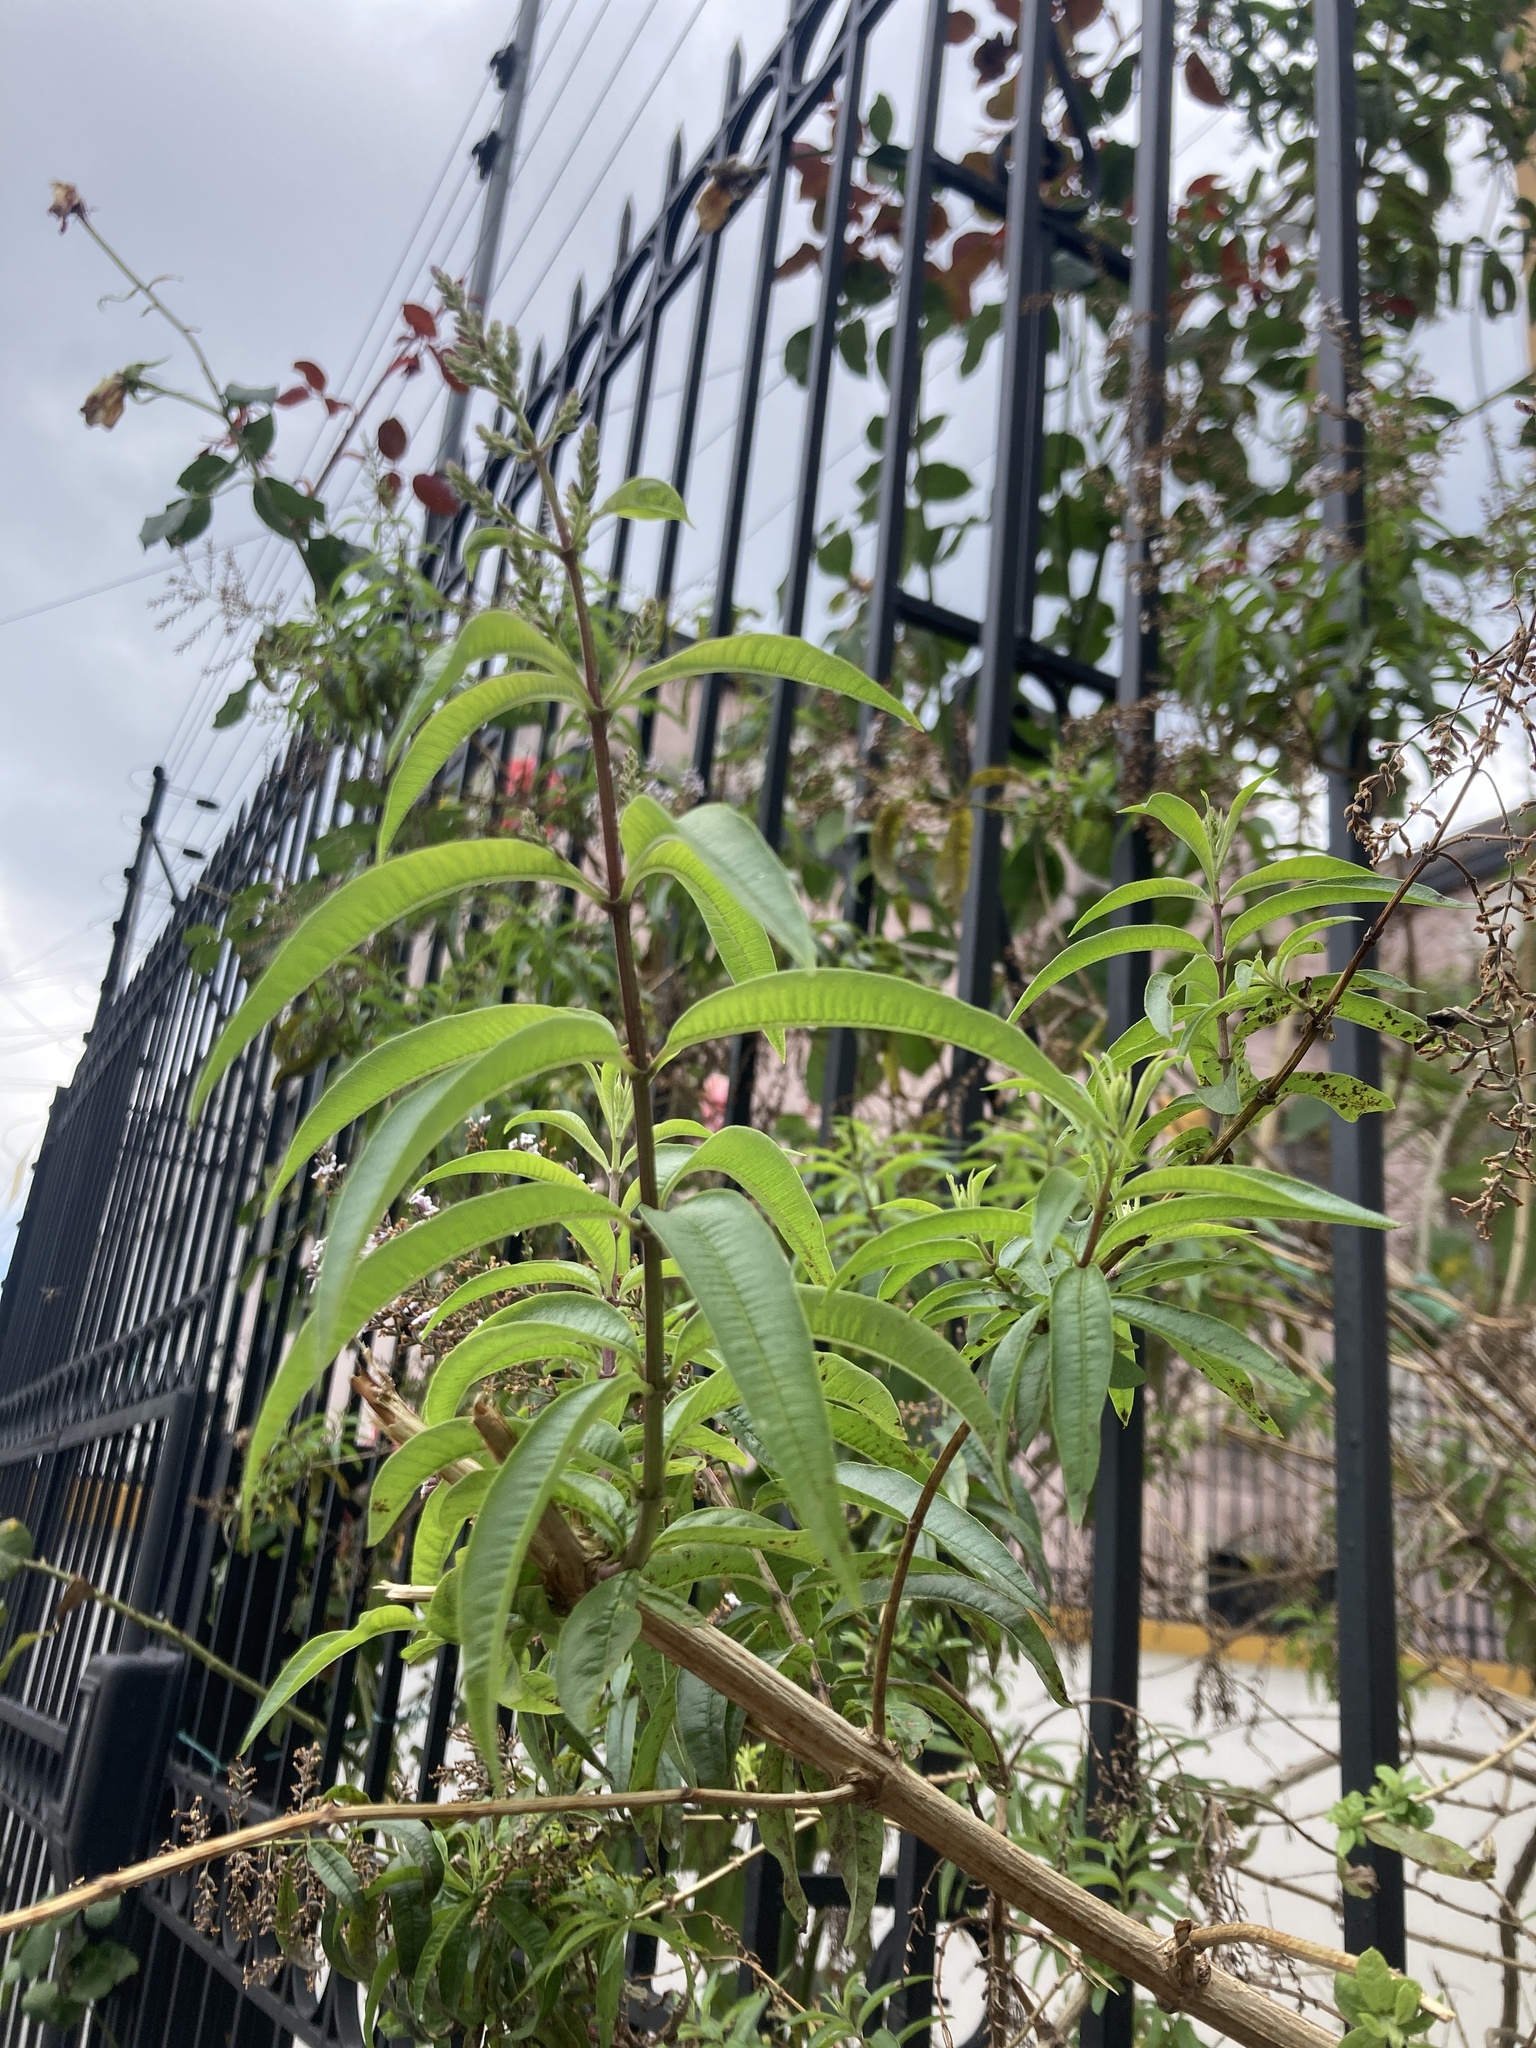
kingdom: Plantae
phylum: Tracheophyta
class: Magnoliopsida
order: Lamiales
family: Verbenaceae
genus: Aloysia
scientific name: Aloysia citrodora
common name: Lemon beebrush
